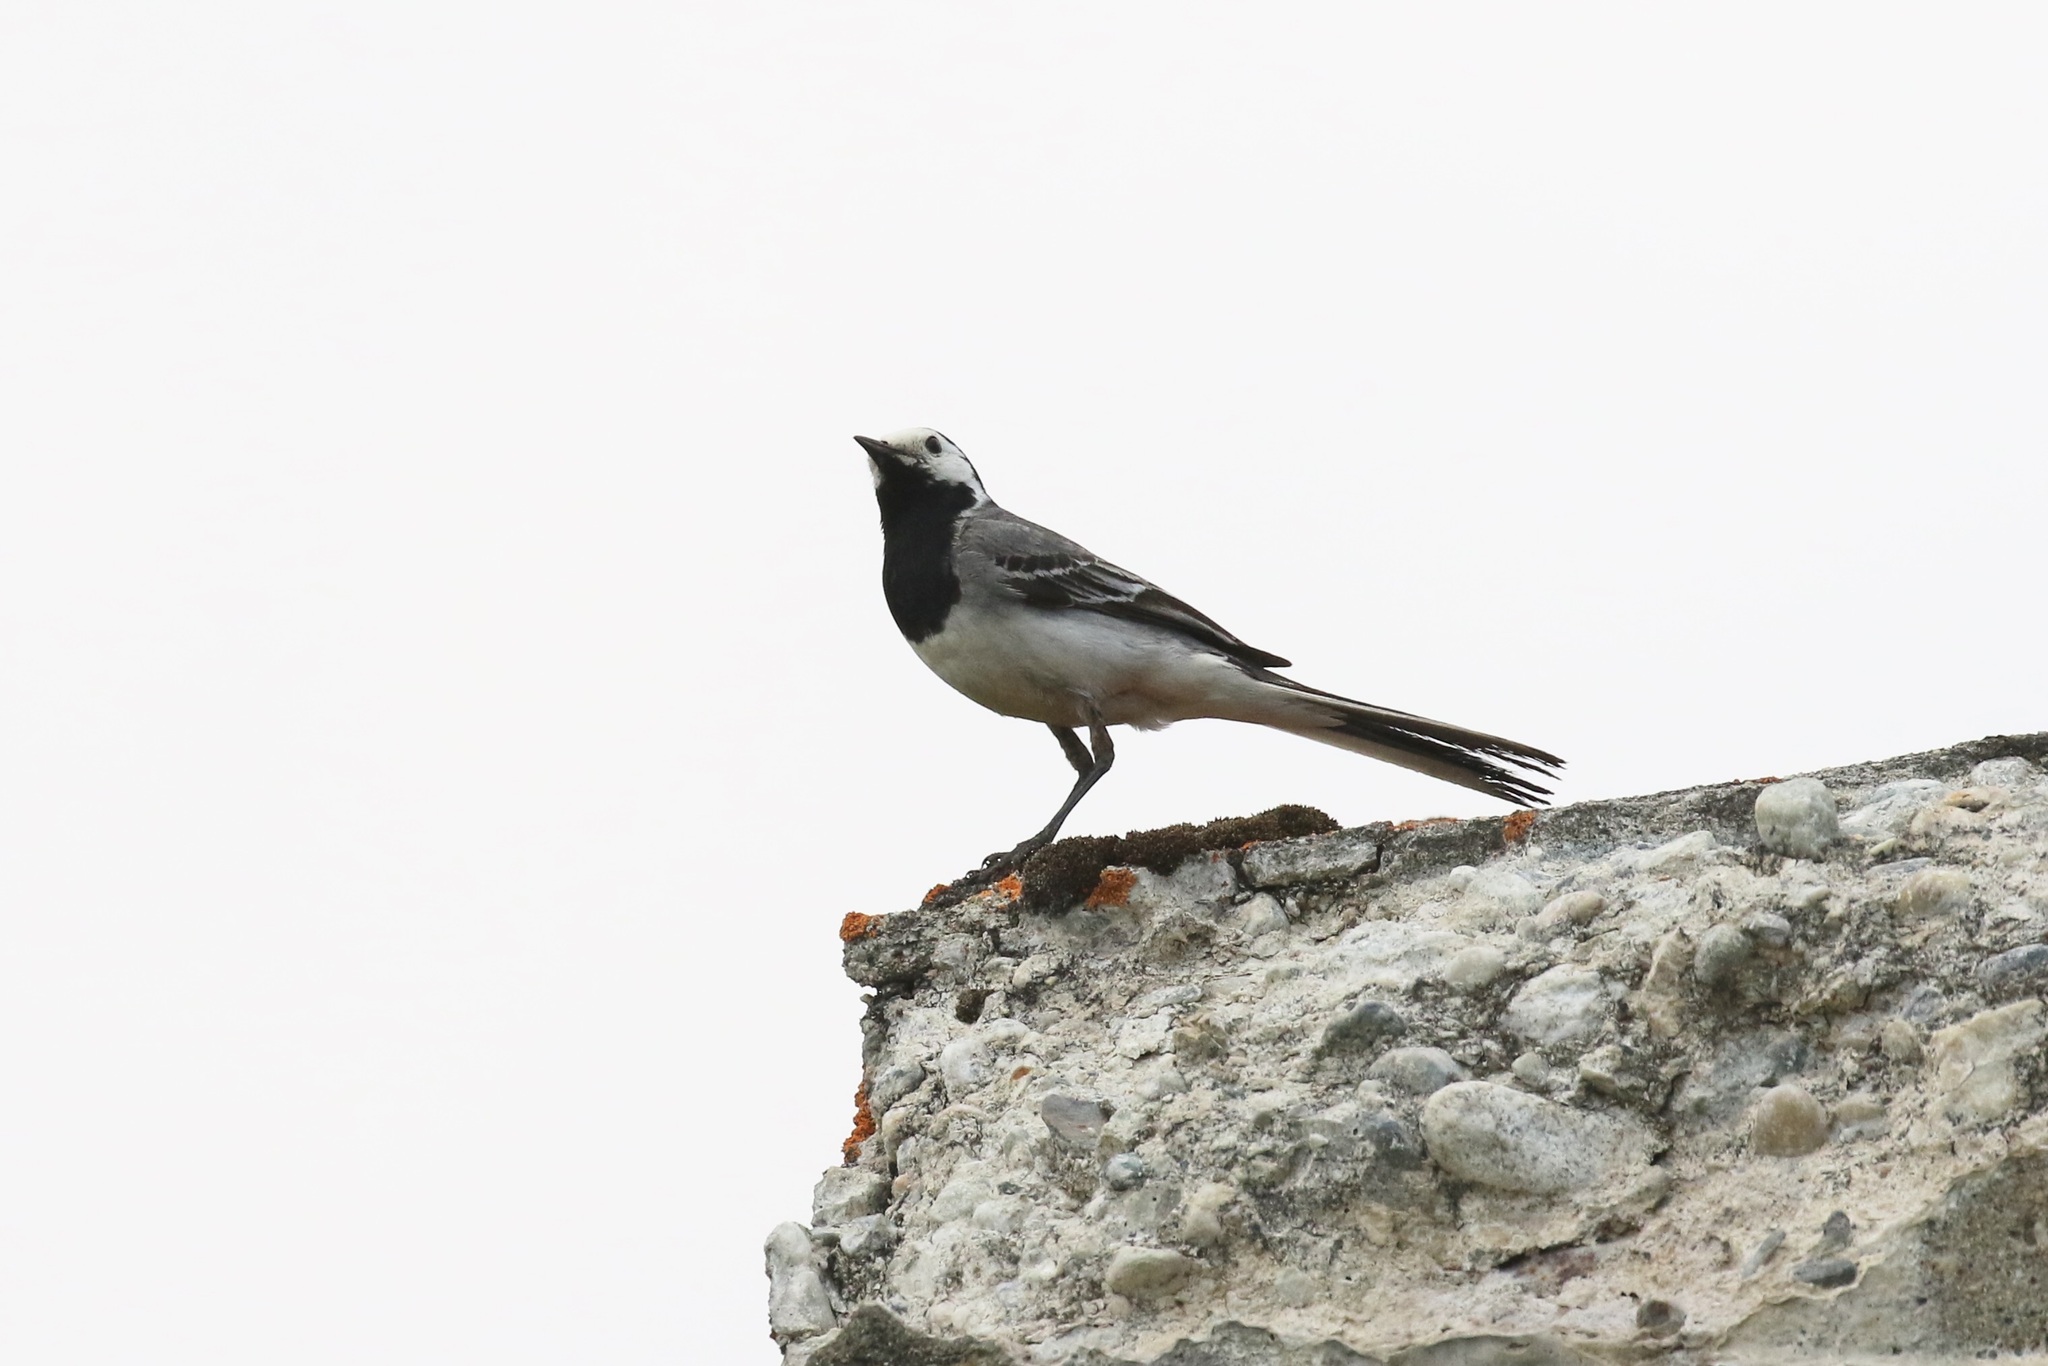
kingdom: Animalia
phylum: Chordata
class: Aves
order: Passeriformes
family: Motacillidae
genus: Motacilla
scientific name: Motacilla alba
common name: White wagtail
